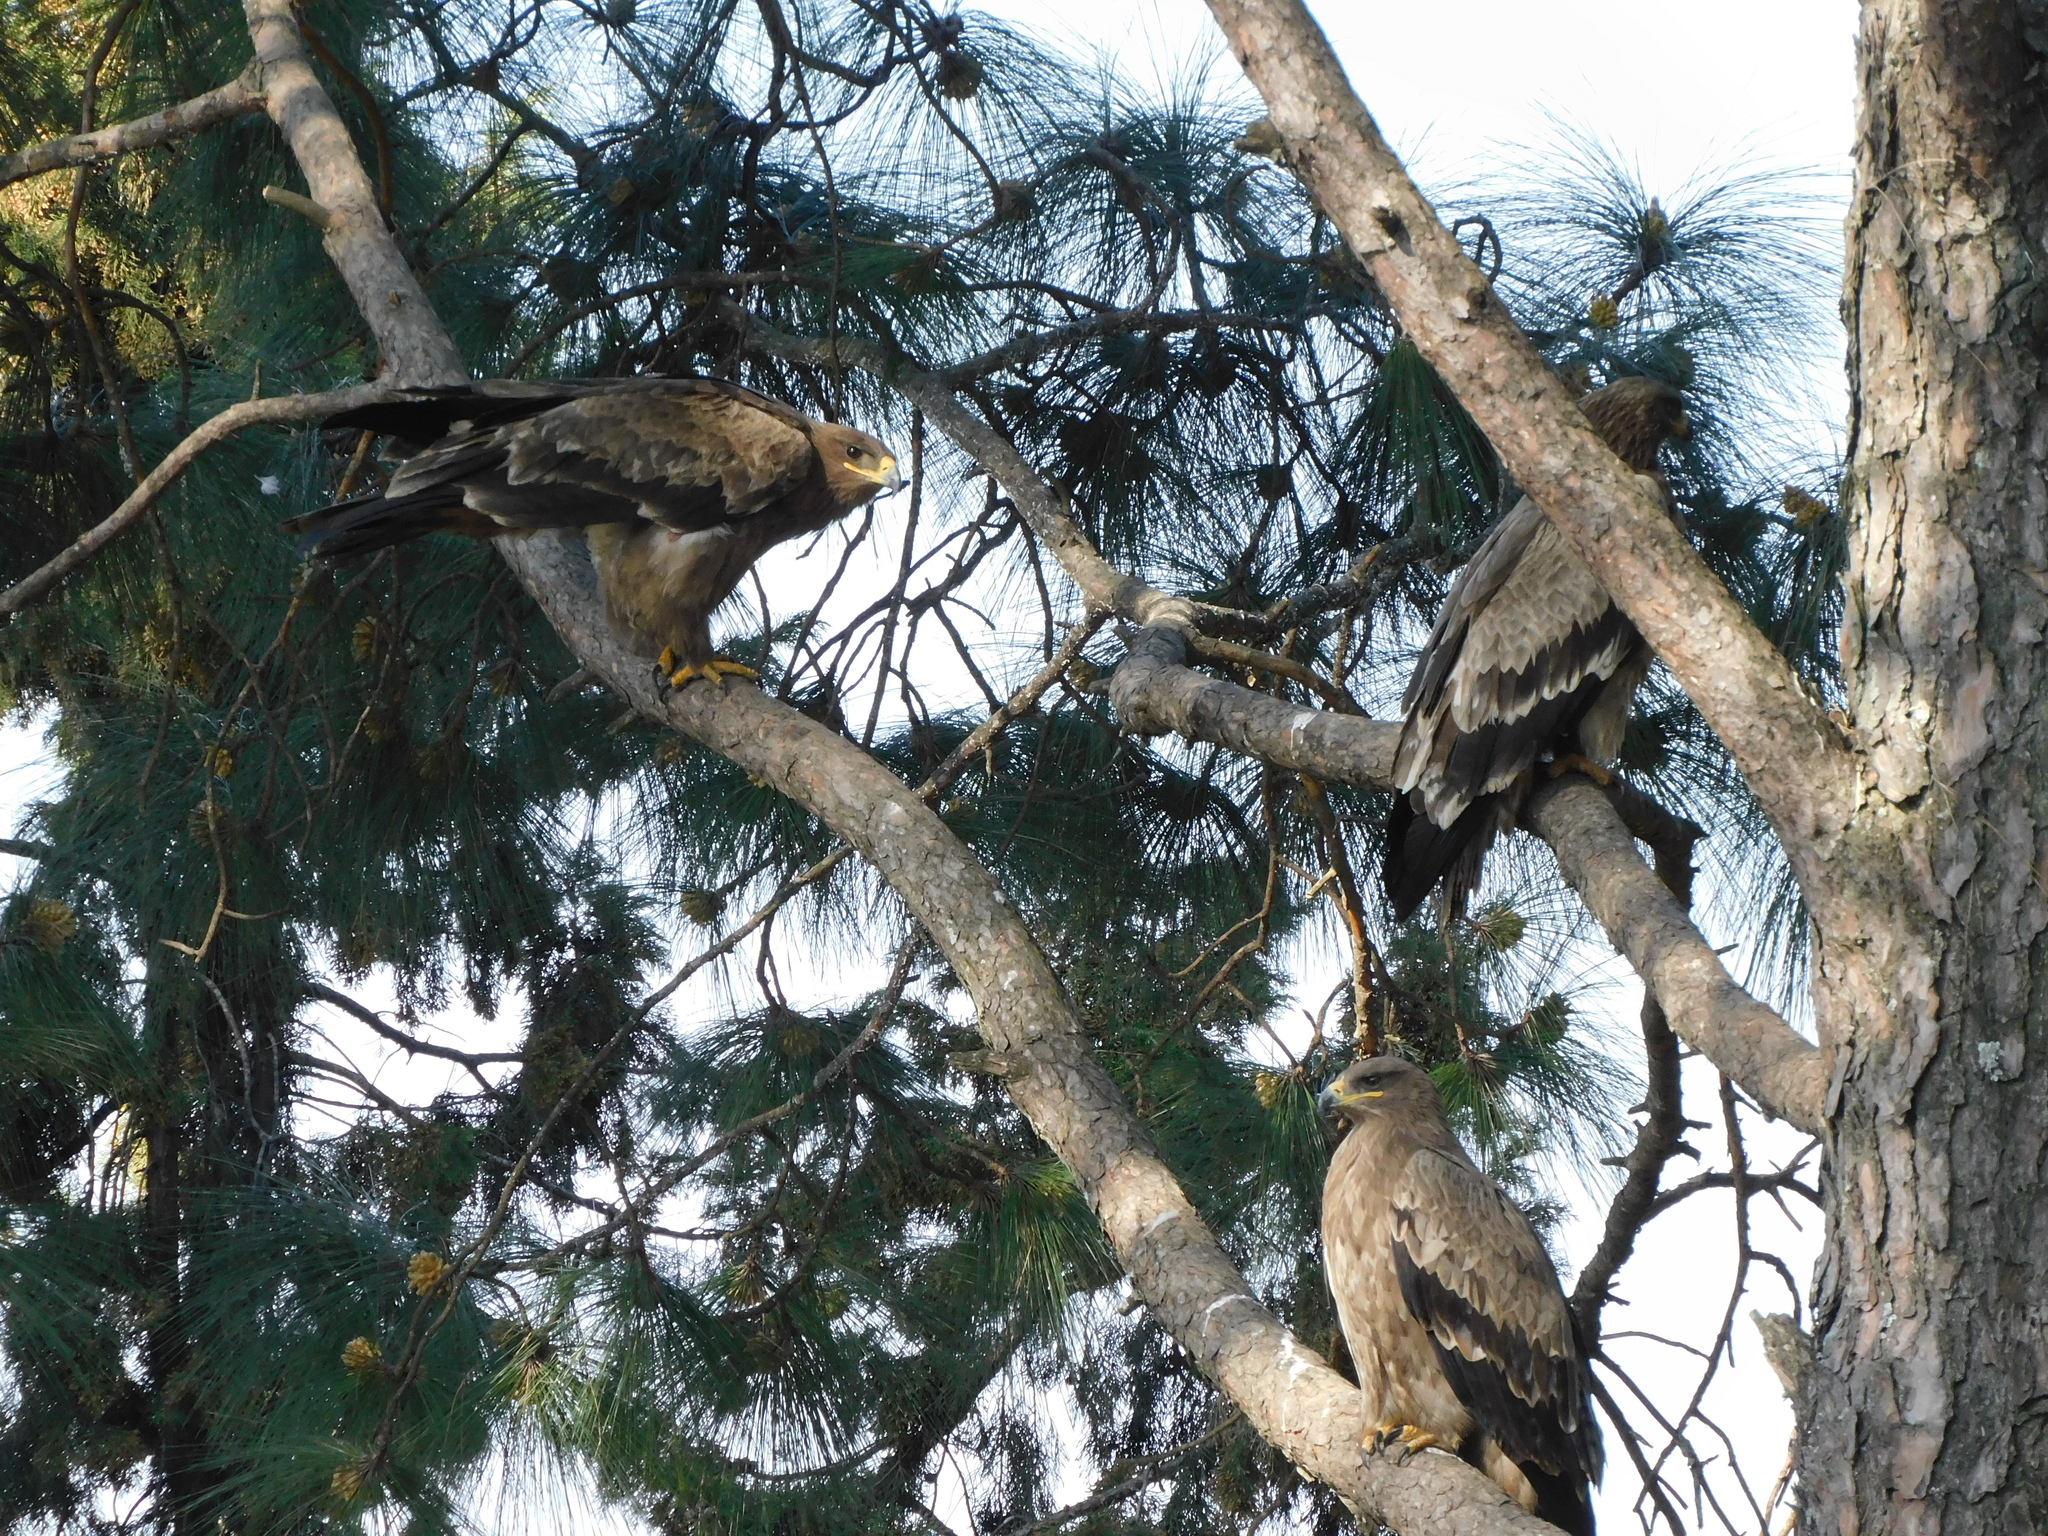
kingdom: Animalia
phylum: Chordata
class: Aves
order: Accipitriformes
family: Accipitridae
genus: Aquila
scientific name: Aquila nipalensis
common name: Steppe eagle
